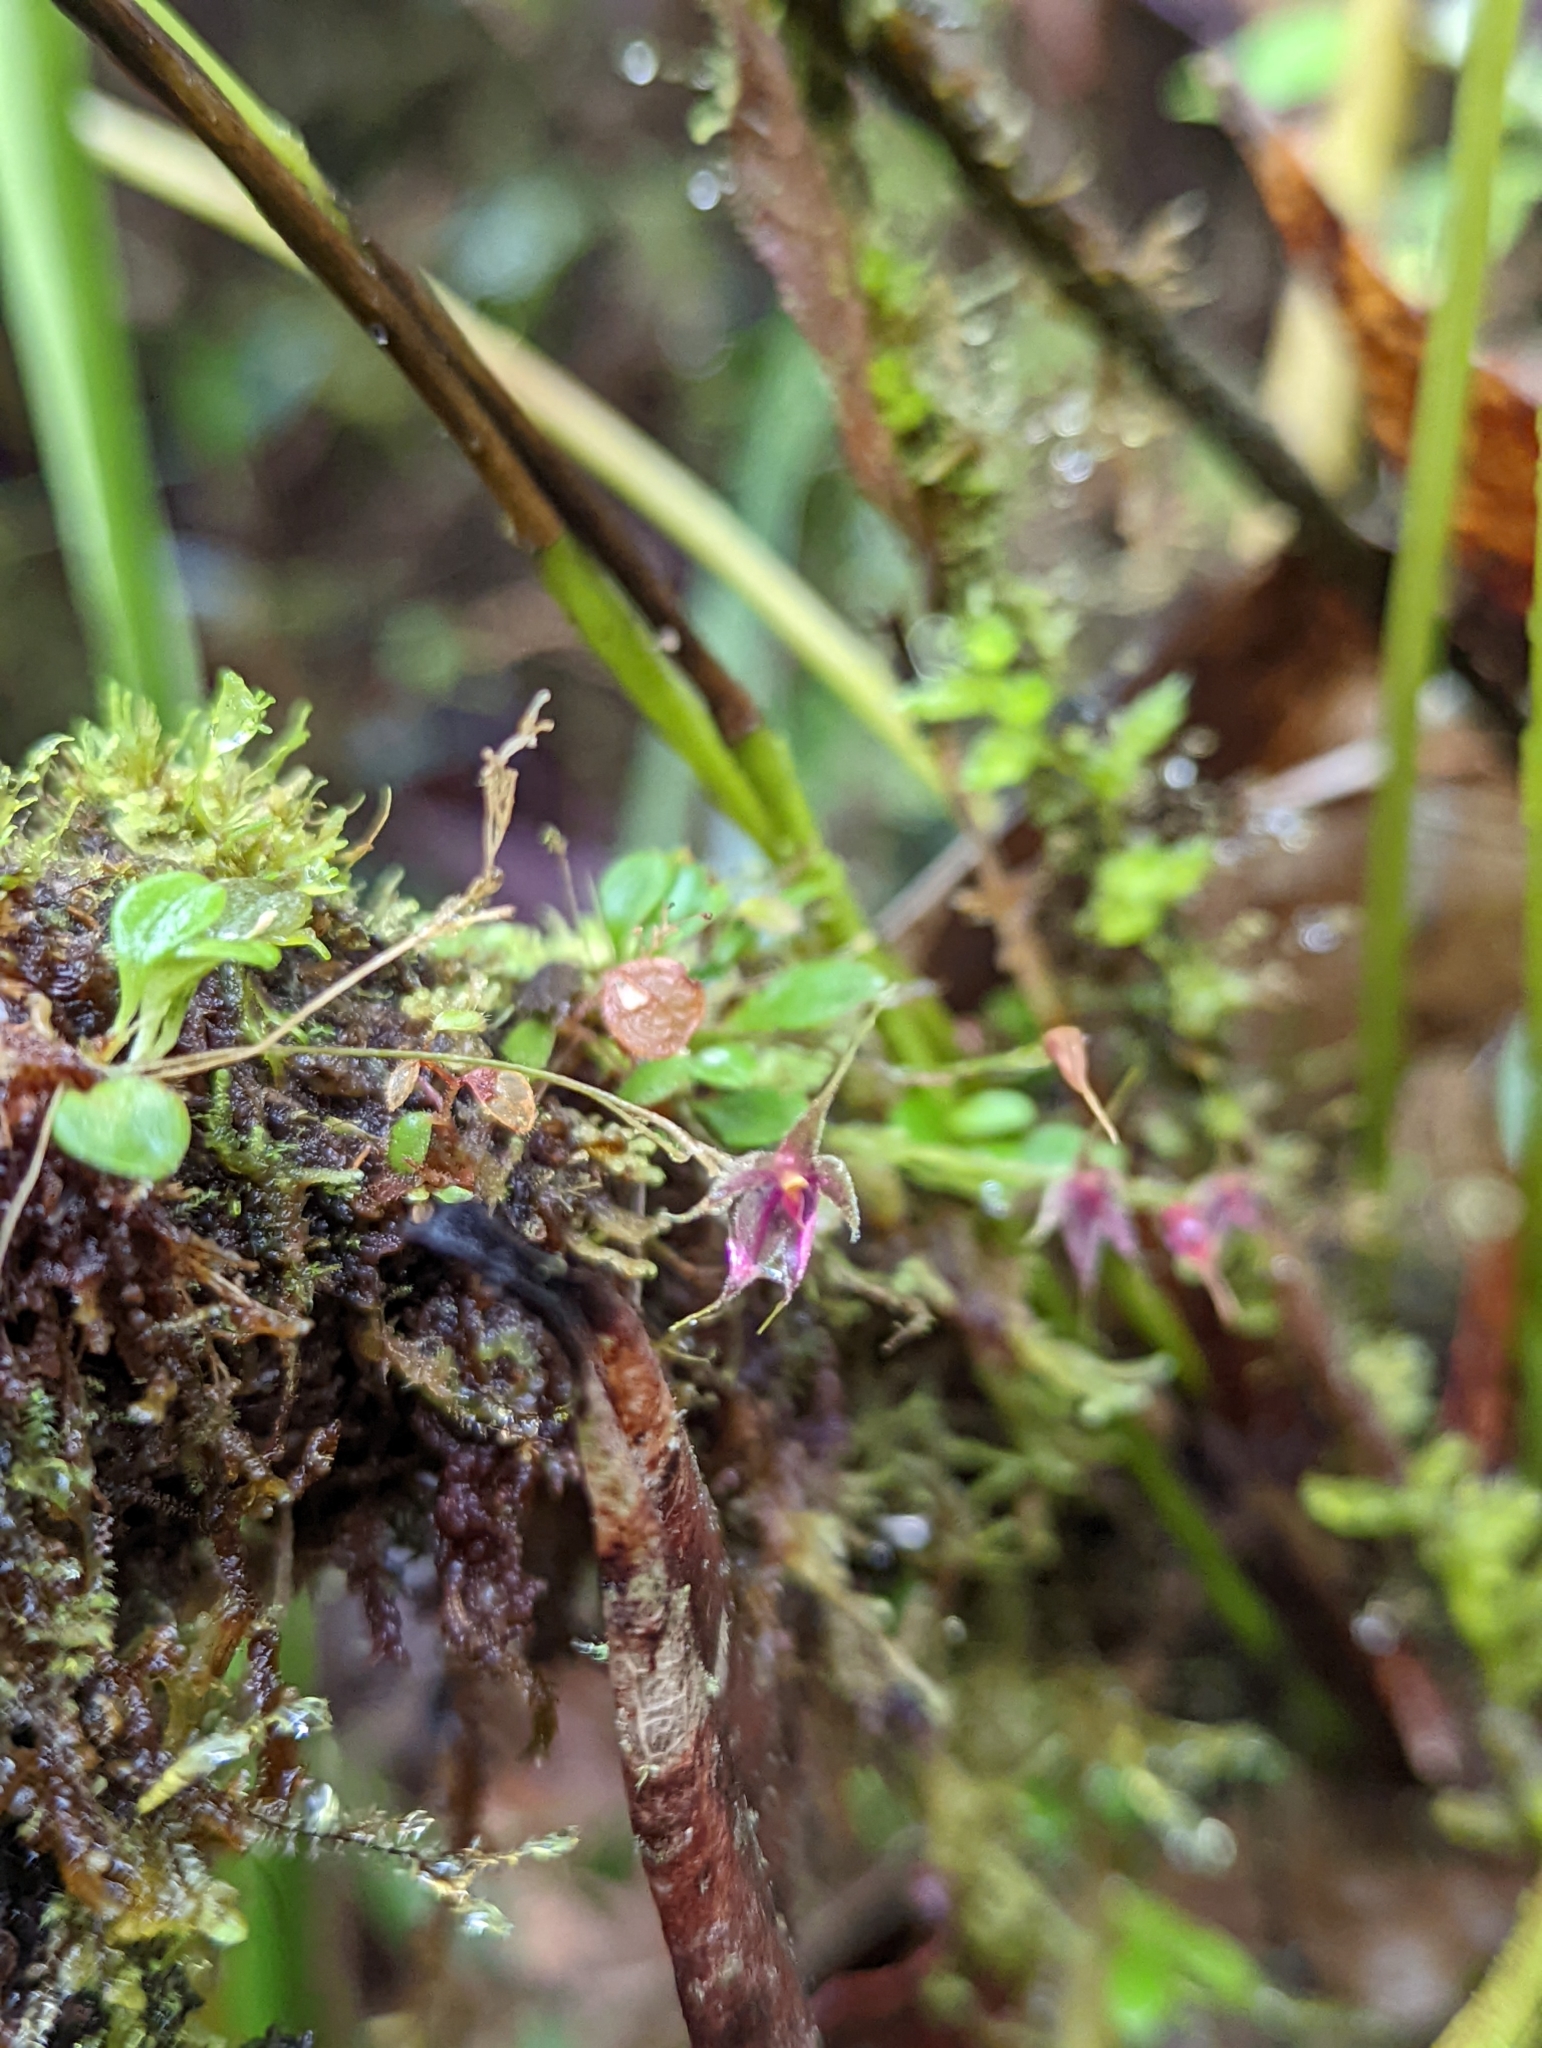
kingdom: Plantae
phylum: Tracheophyta
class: Liliopsida
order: Asparagales
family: Orchidaceae
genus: Platystele
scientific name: Platystele posadarum
